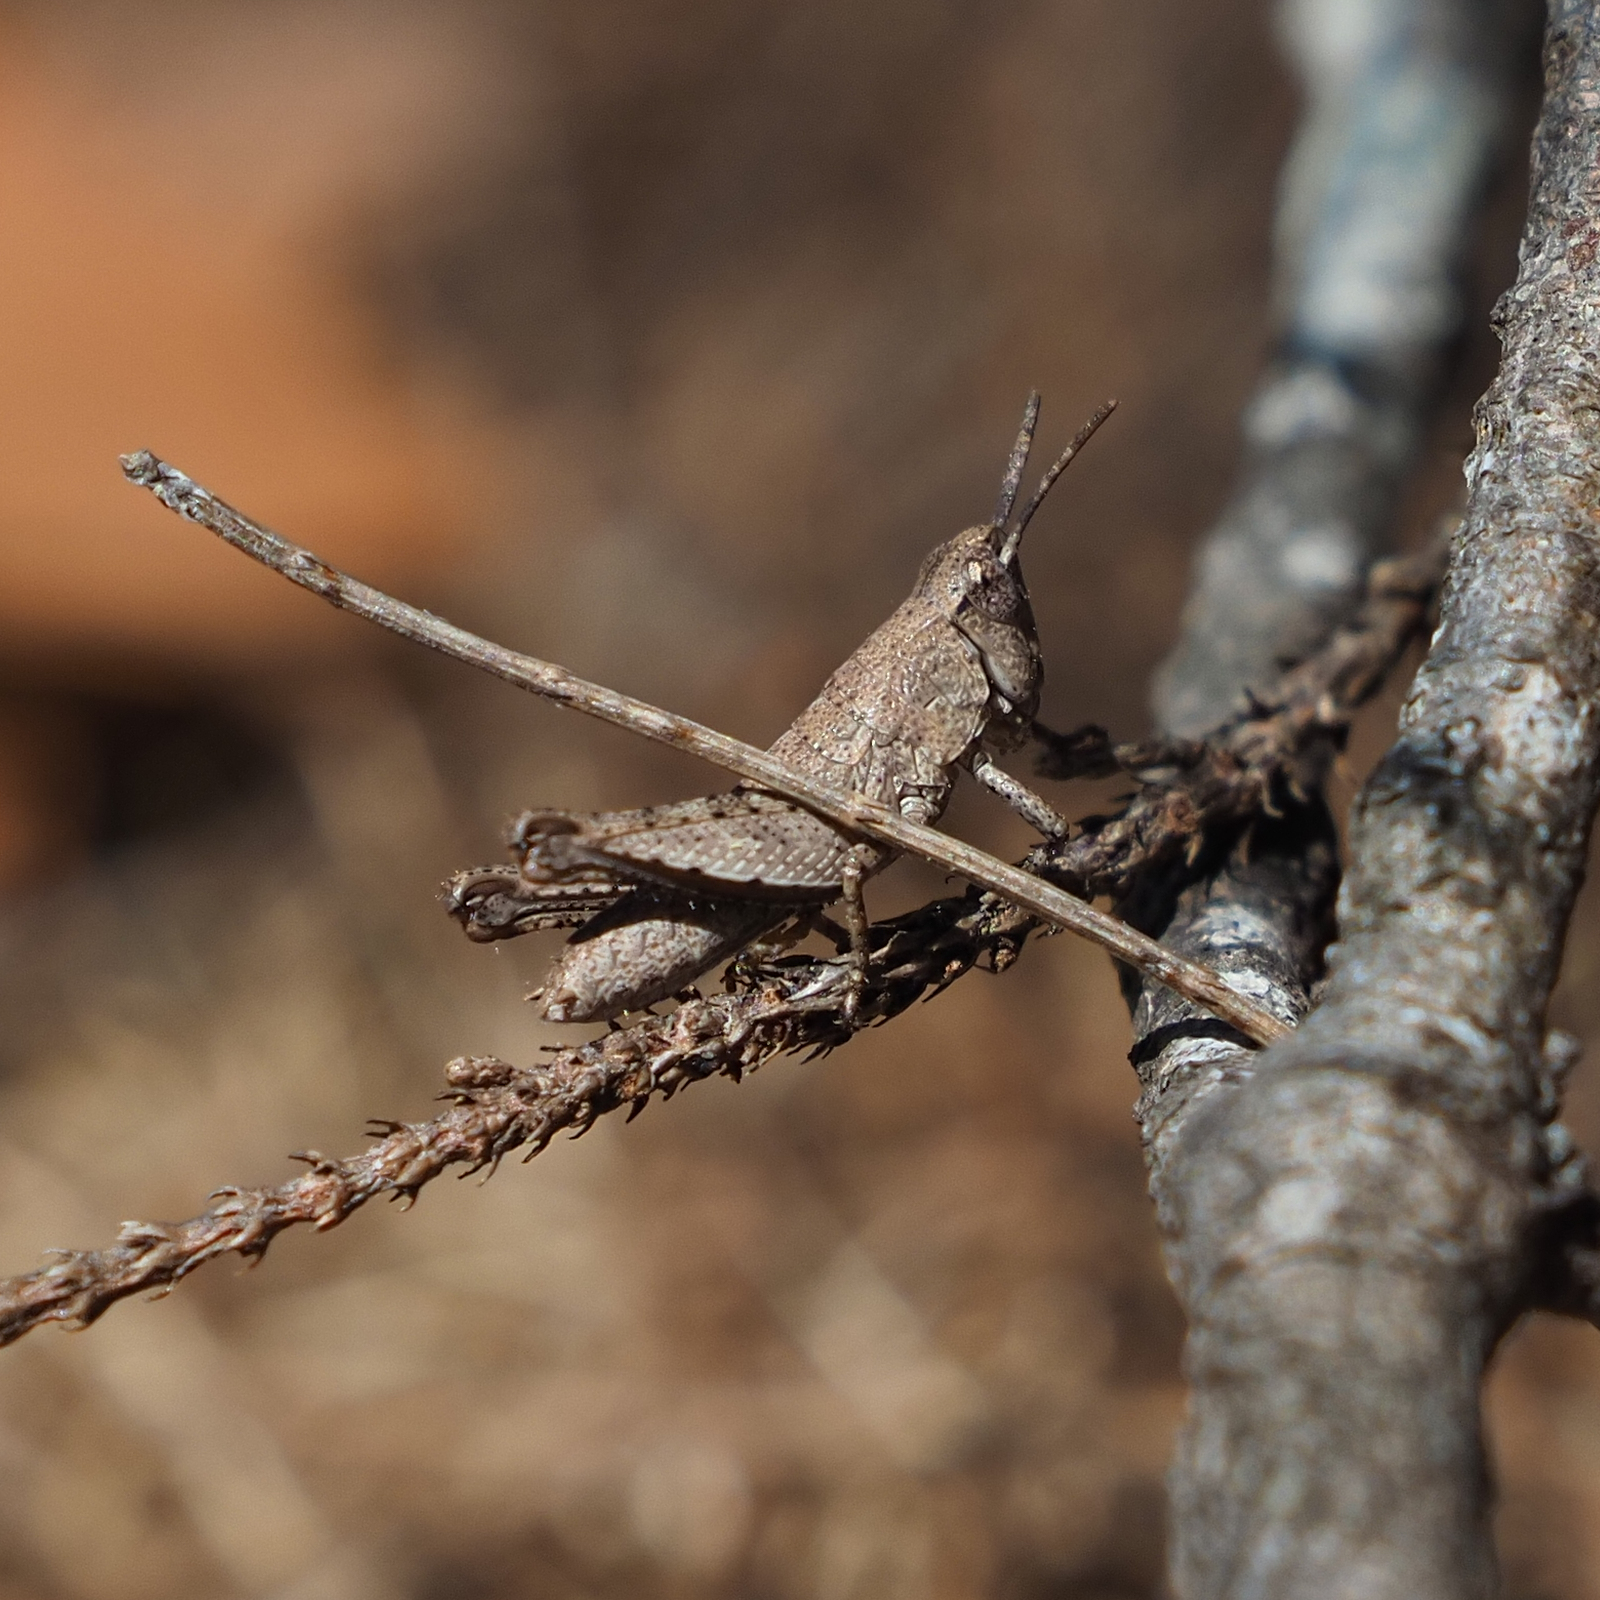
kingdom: Animalia
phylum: Arthropoda
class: Insecta
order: Orthoptera
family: Acrididae
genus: Tasmaniacris
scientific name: Tasmaniacris tasmaniensis
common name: Tasmanian grasshopper
